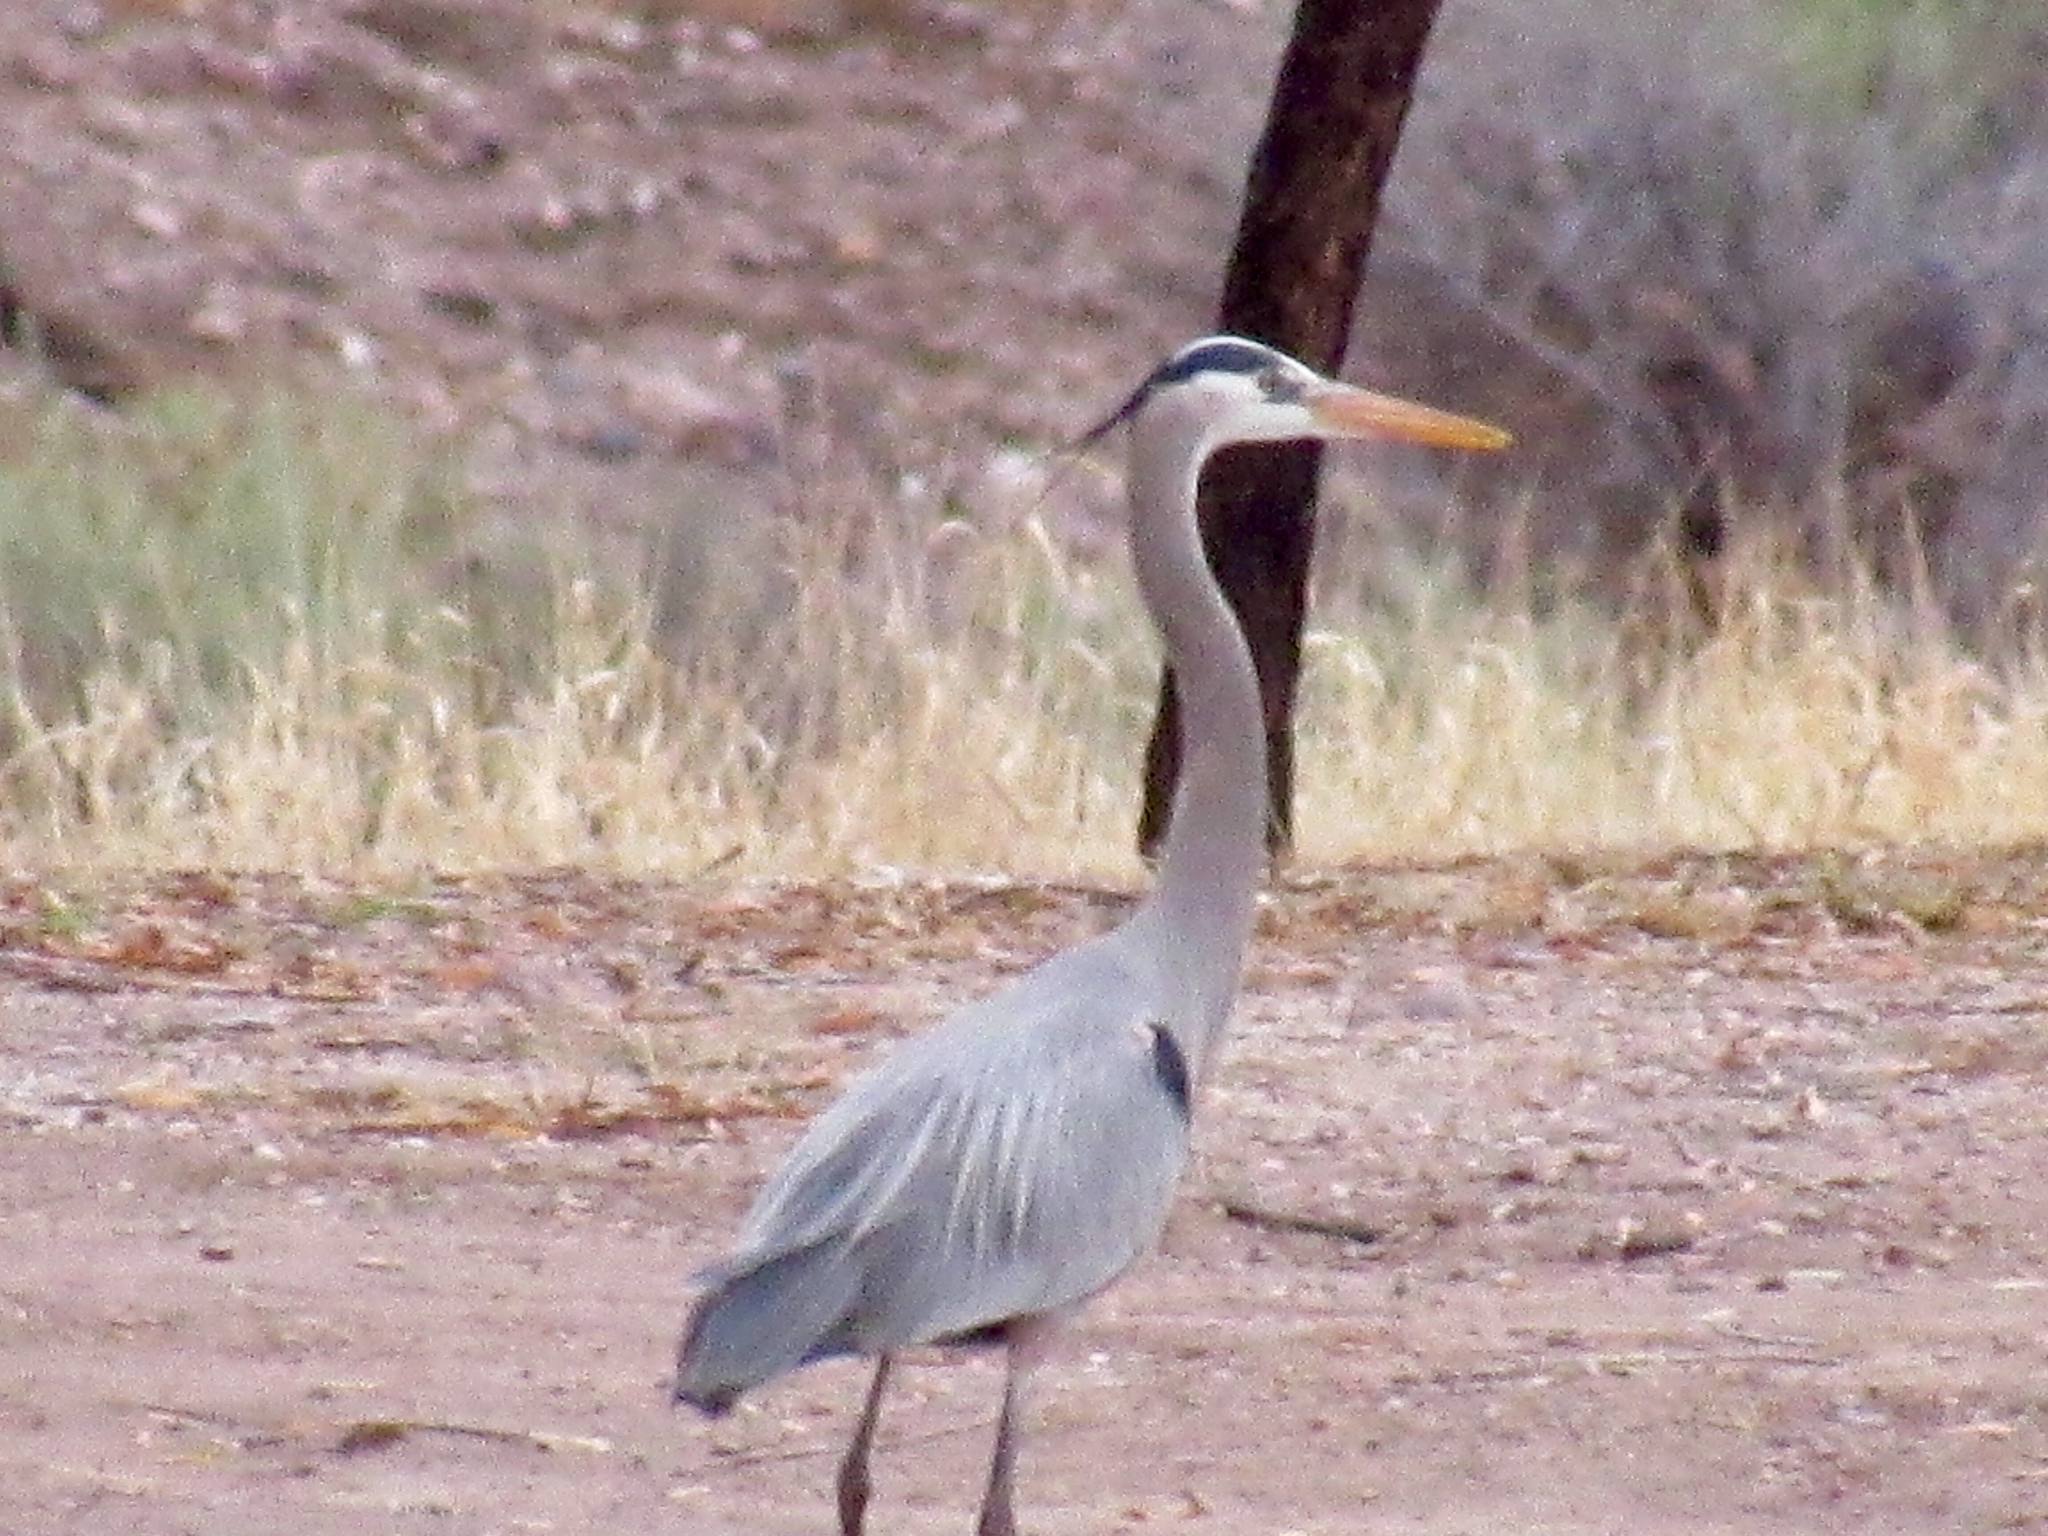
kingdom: Animalia
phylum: Chordata
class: Aves
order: Pelecaniformes
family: Ardeidae
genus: Ardea
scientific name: Ardea herodias
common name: Great blue heron
